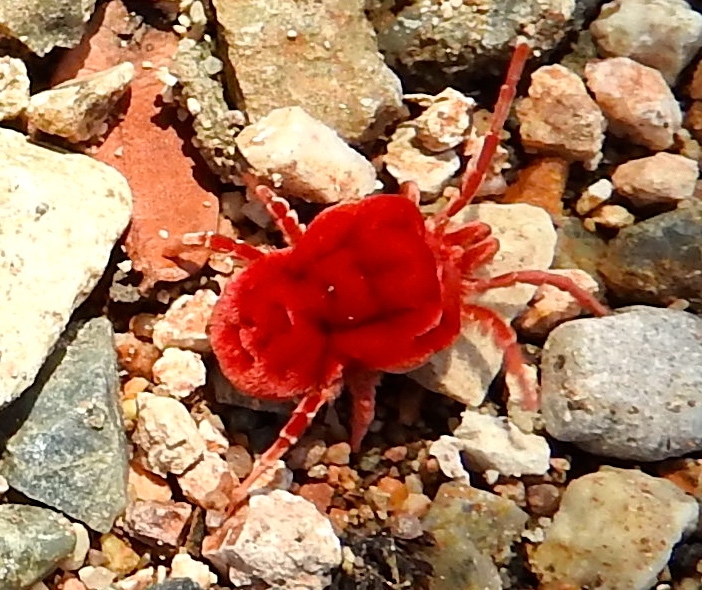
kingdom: Animalia
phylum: Arthropoda
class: Arachnida
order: Trombidiformes
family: Leeuwenhoekiidae
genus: Dinothrombium
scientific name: Dinothrombium
